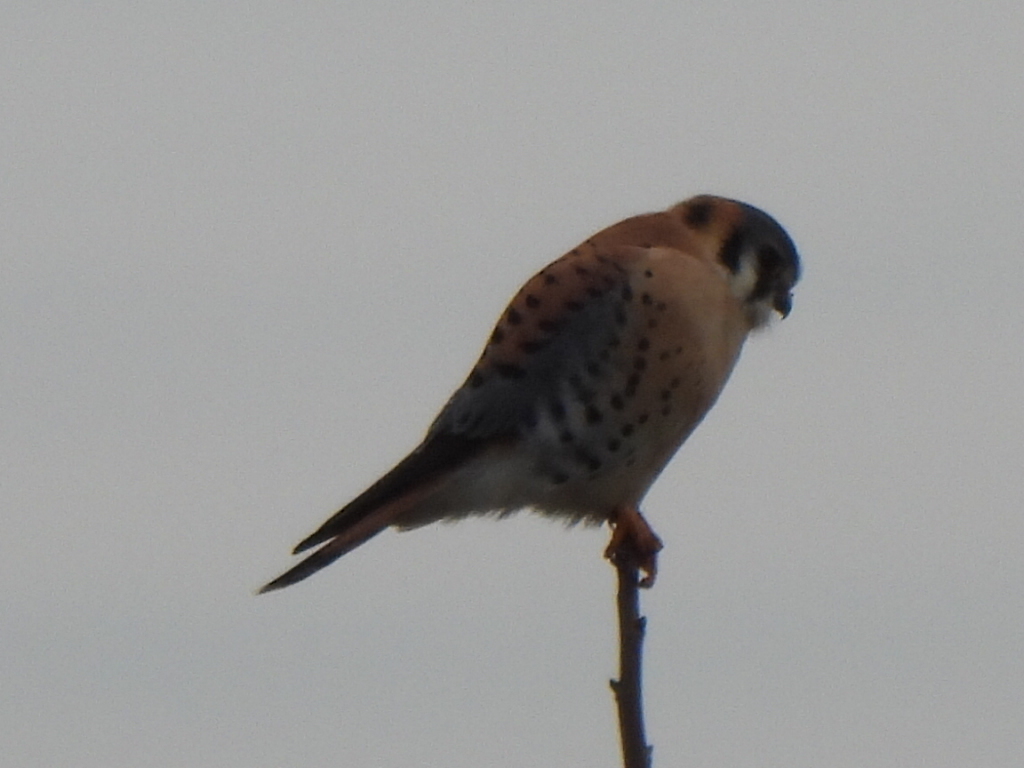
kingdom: Animalia
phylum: Chordata
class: Aves
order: Falconiformes
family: Falconidae
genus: Falco
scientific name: Falco sparverius
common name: American kestrel
